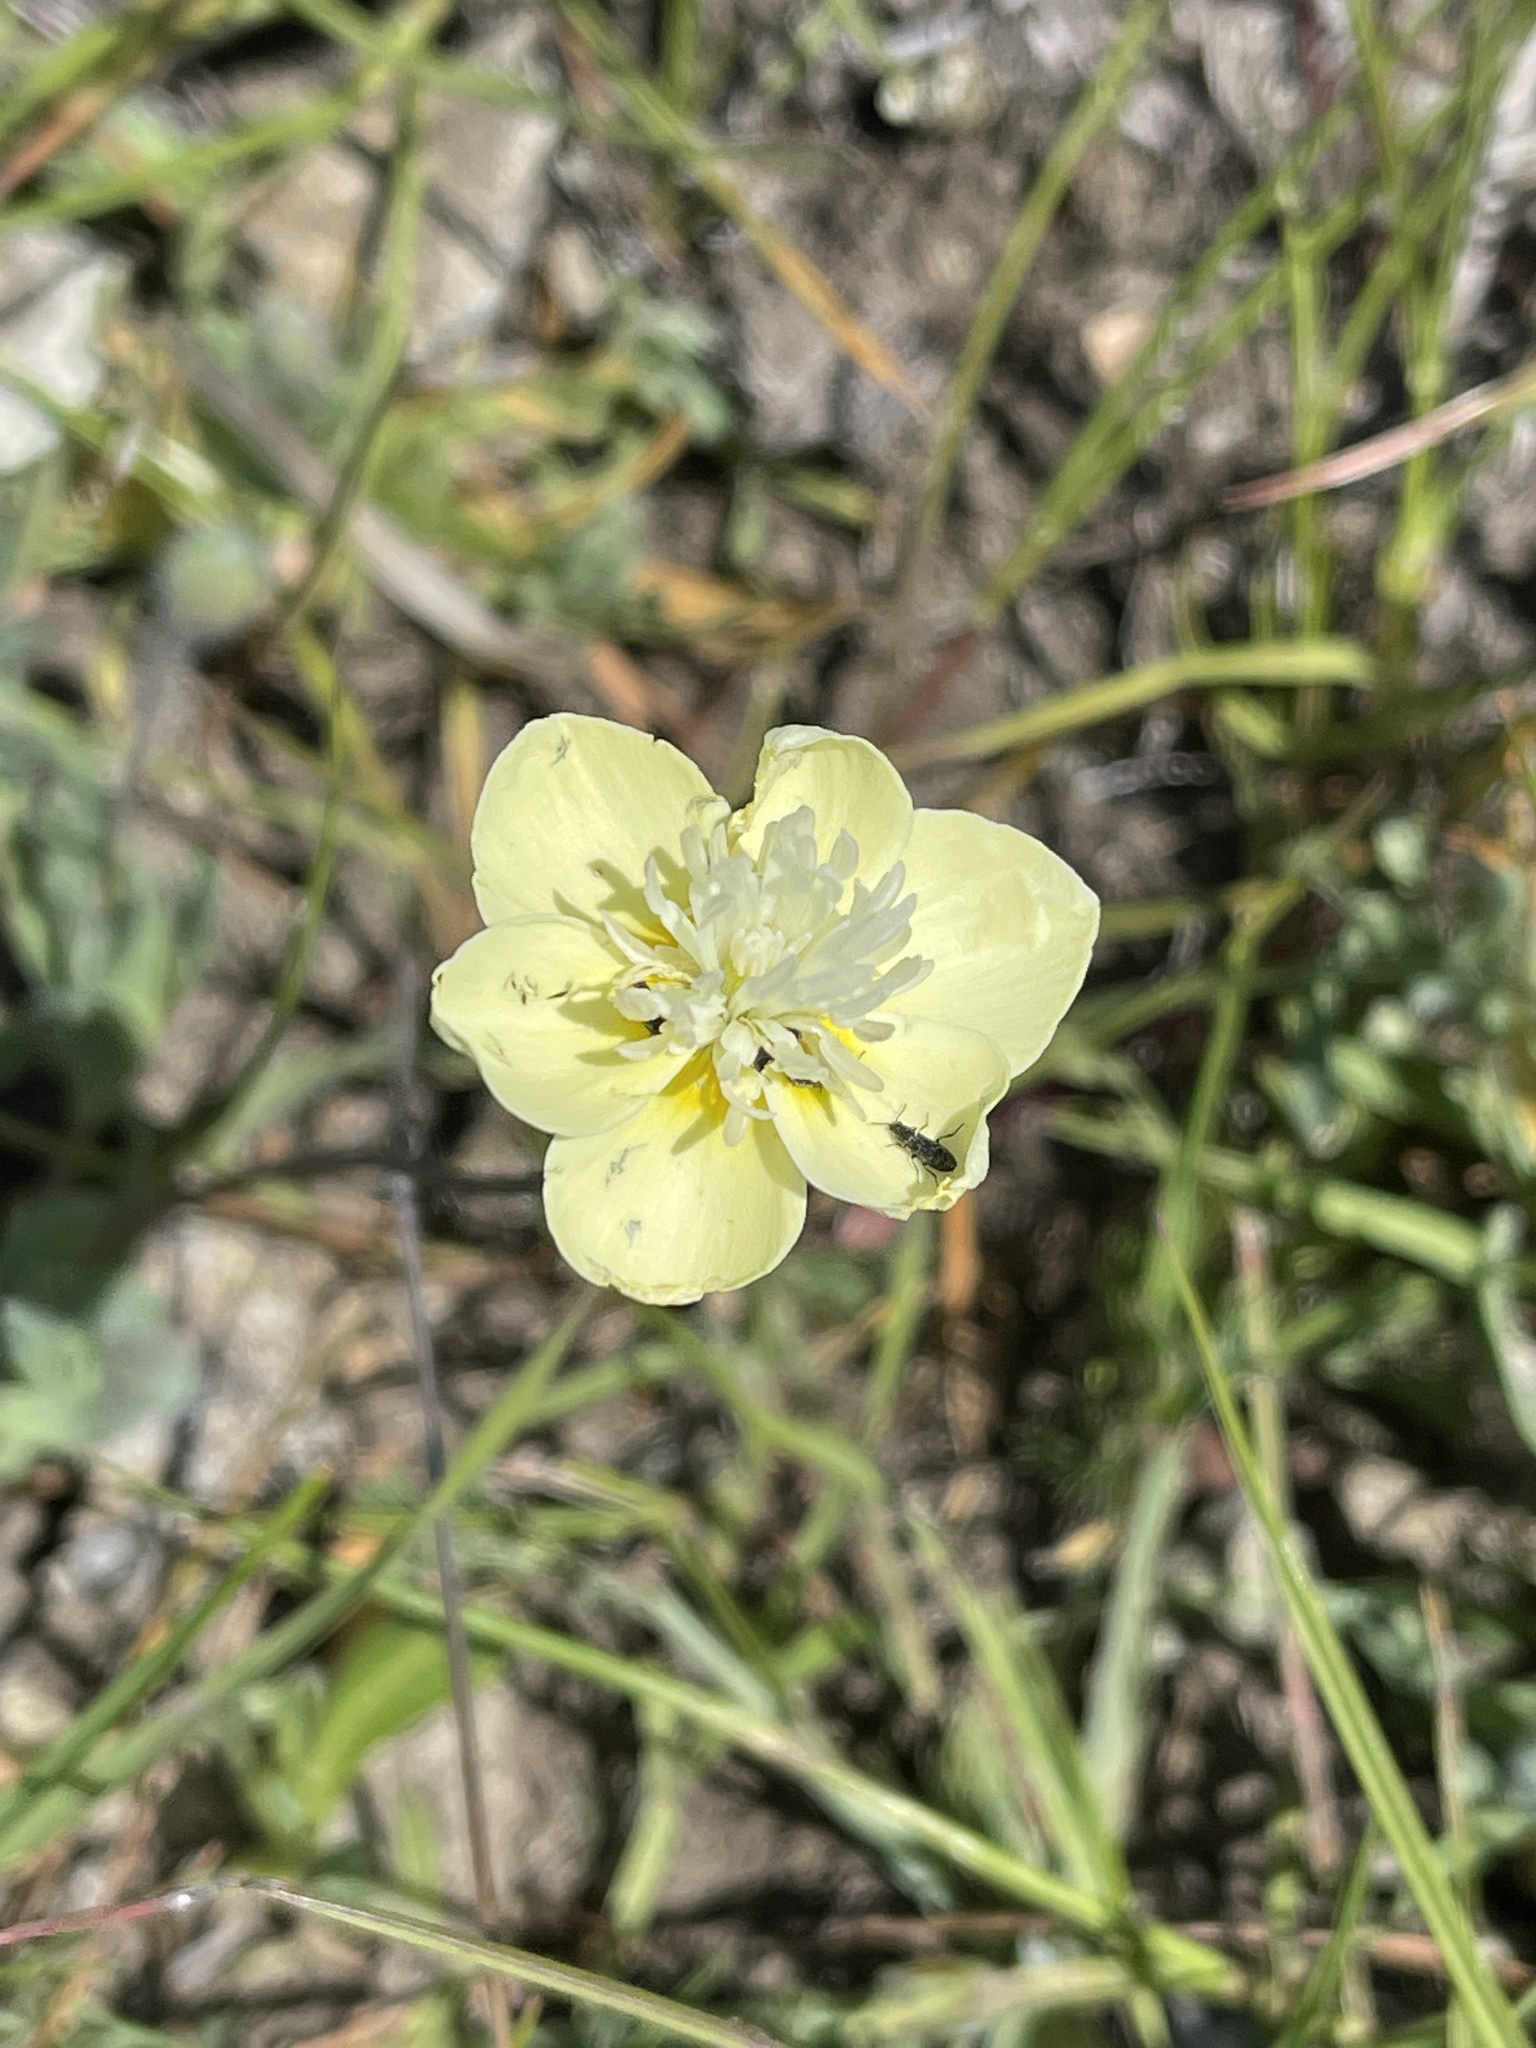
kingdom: Plantae
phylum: Tracheophyta
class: Magnoliopsida
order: Ranunculales
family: Papaveraceae
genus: Platystemon
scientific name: Platystemon californicus
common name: Cream-cups
